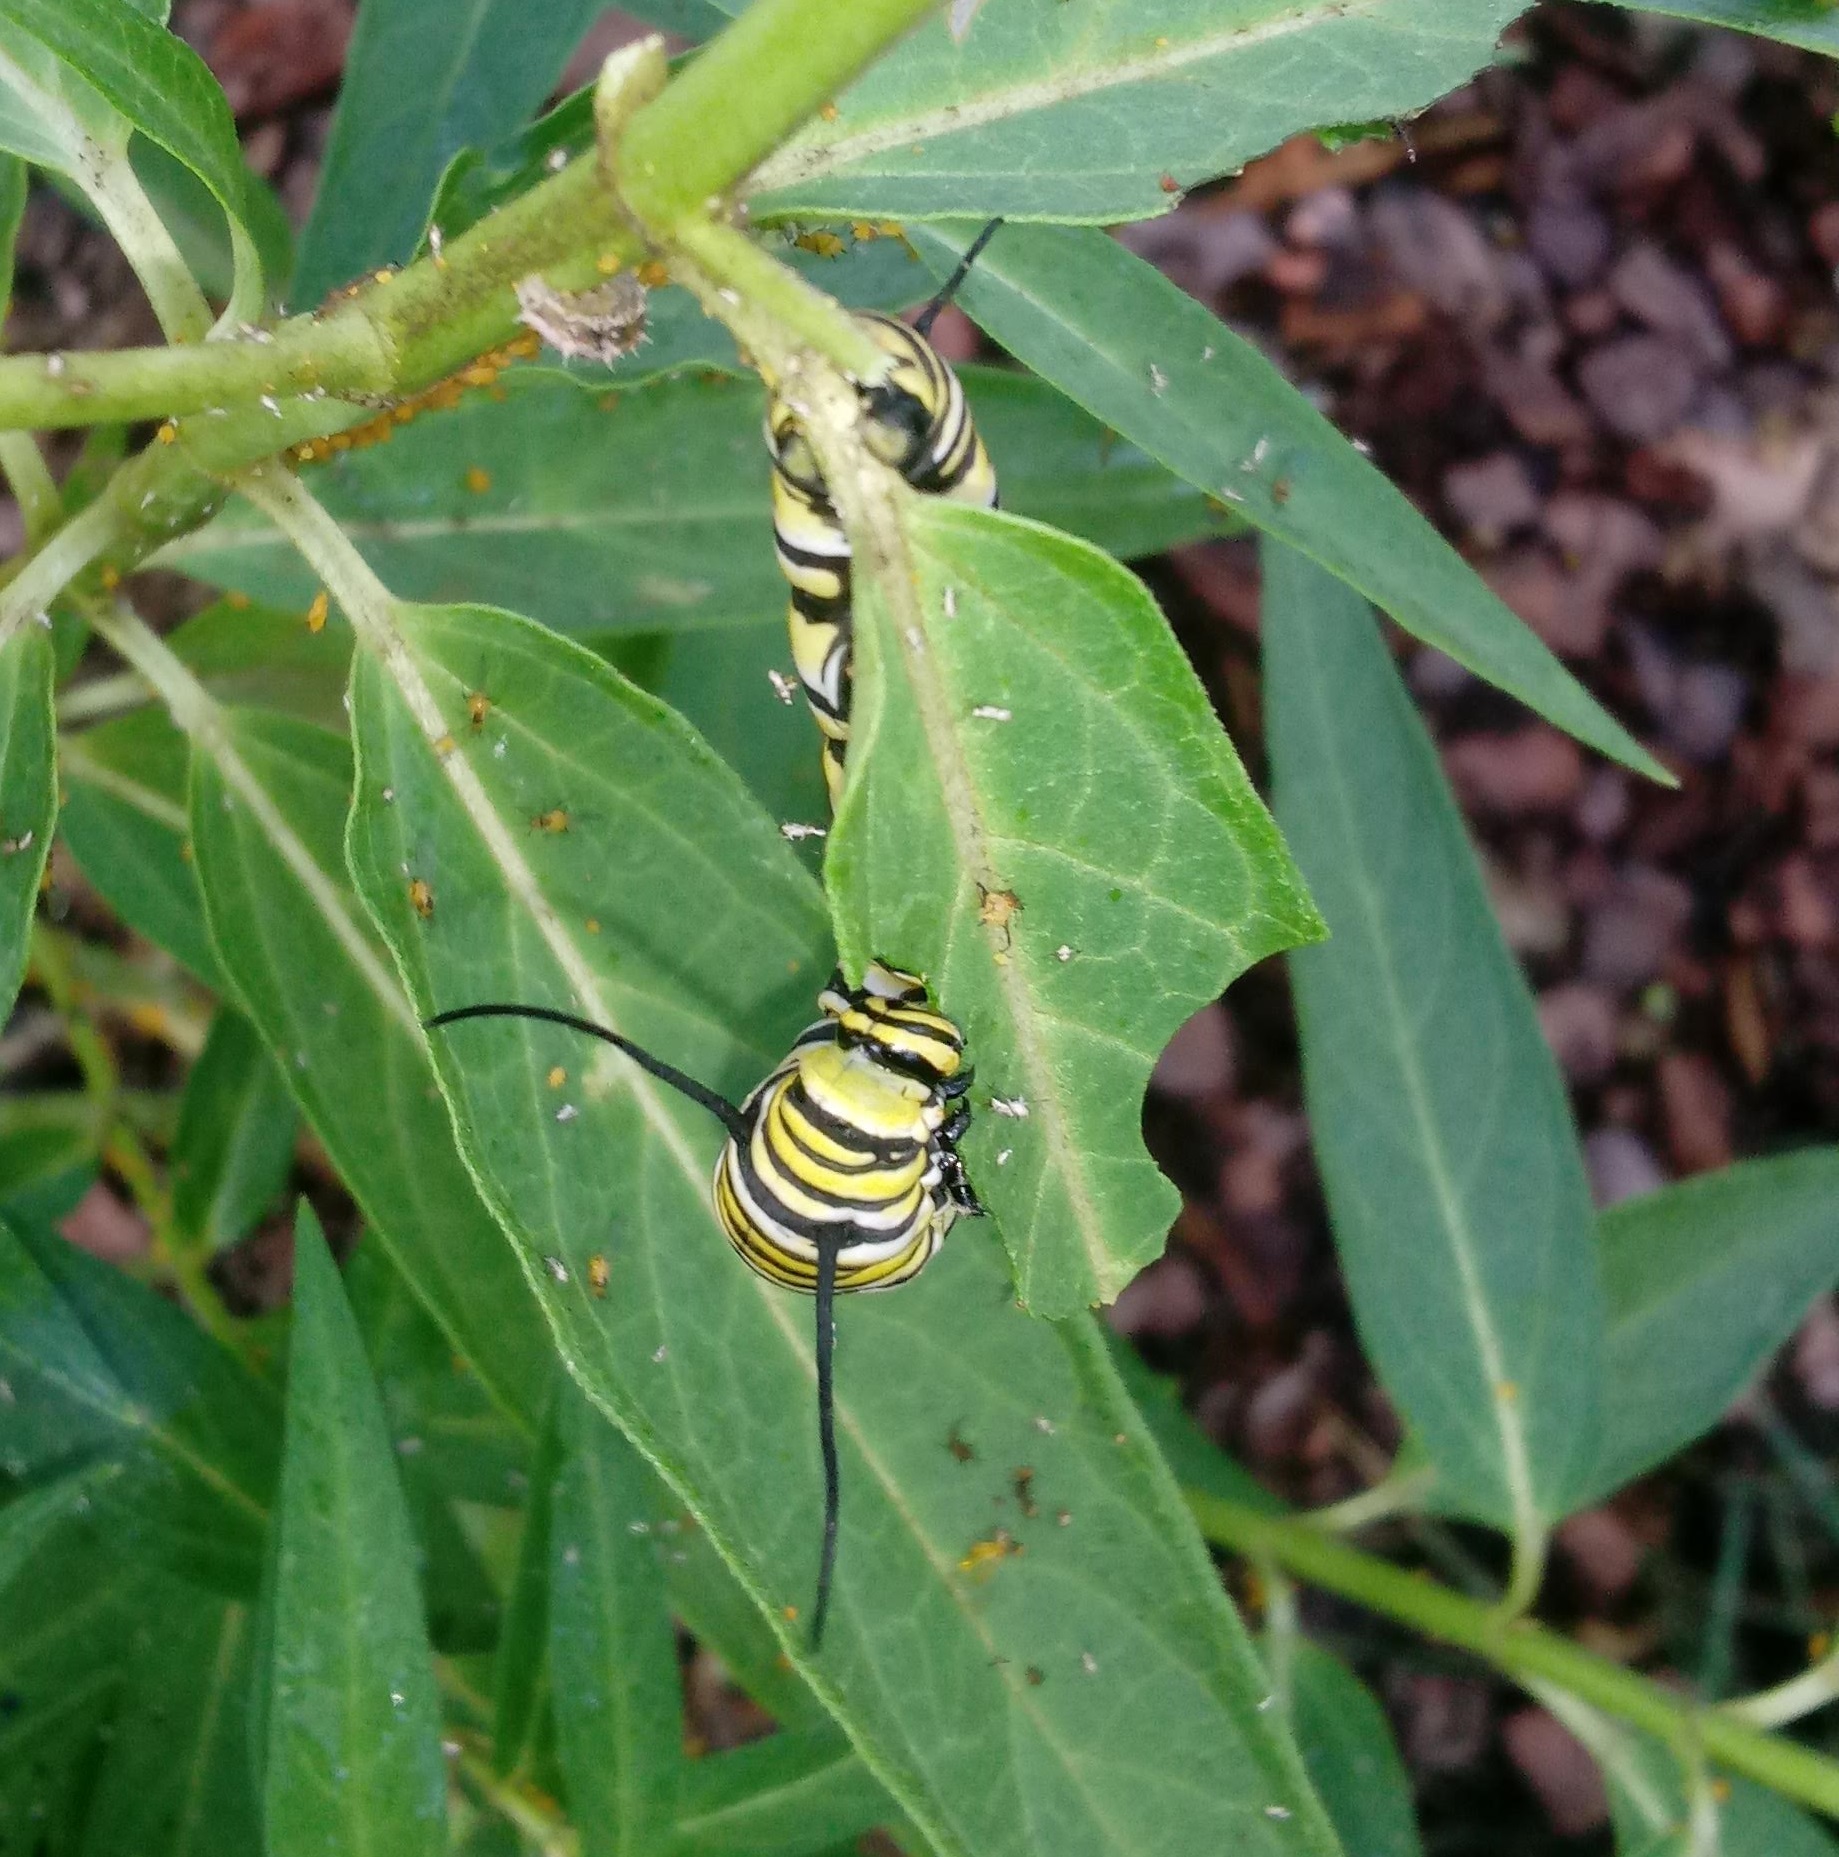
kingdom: Animalia
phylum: Arthropoda
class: Insecta
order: Lepidoptera
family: Nymphalidae
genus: Danaus
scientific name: Danaus plexippus
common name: Monarch
